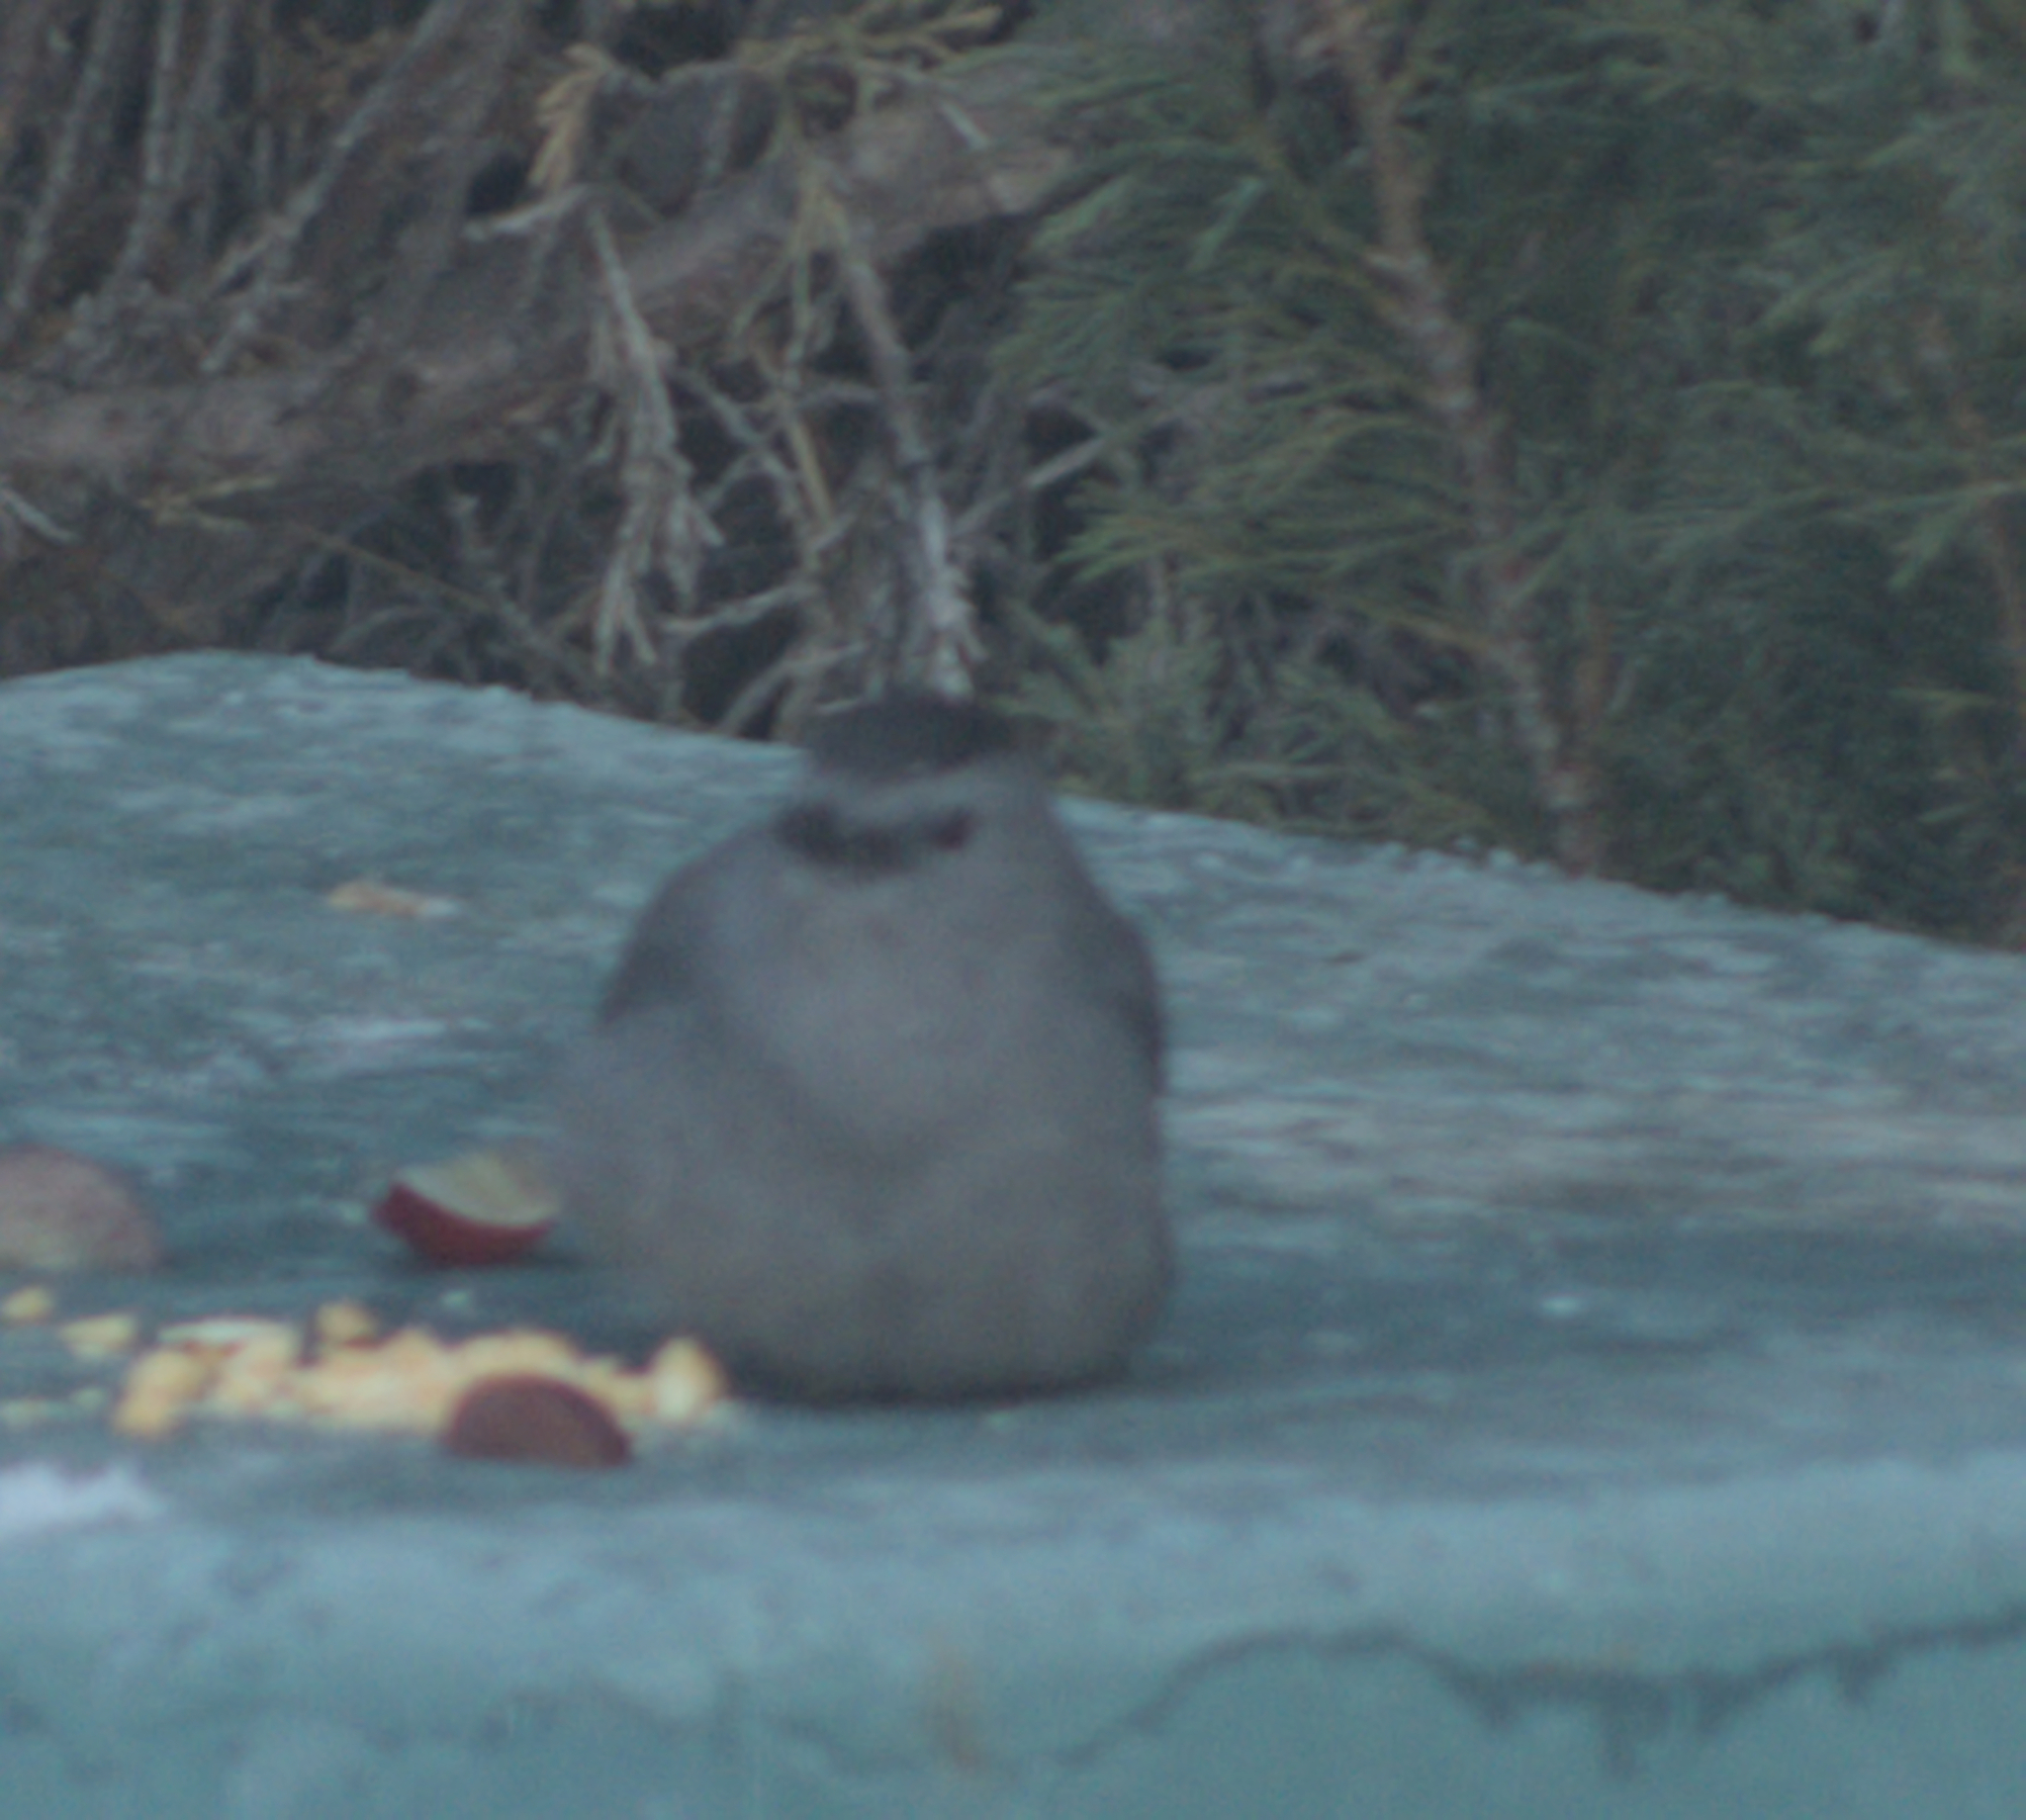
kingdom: Animalia
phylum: Chordata
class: Aves
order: Passeriformes
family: Mimidae
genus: Dumetella
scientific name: Dumetella carolinensis
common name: Gray catbird
